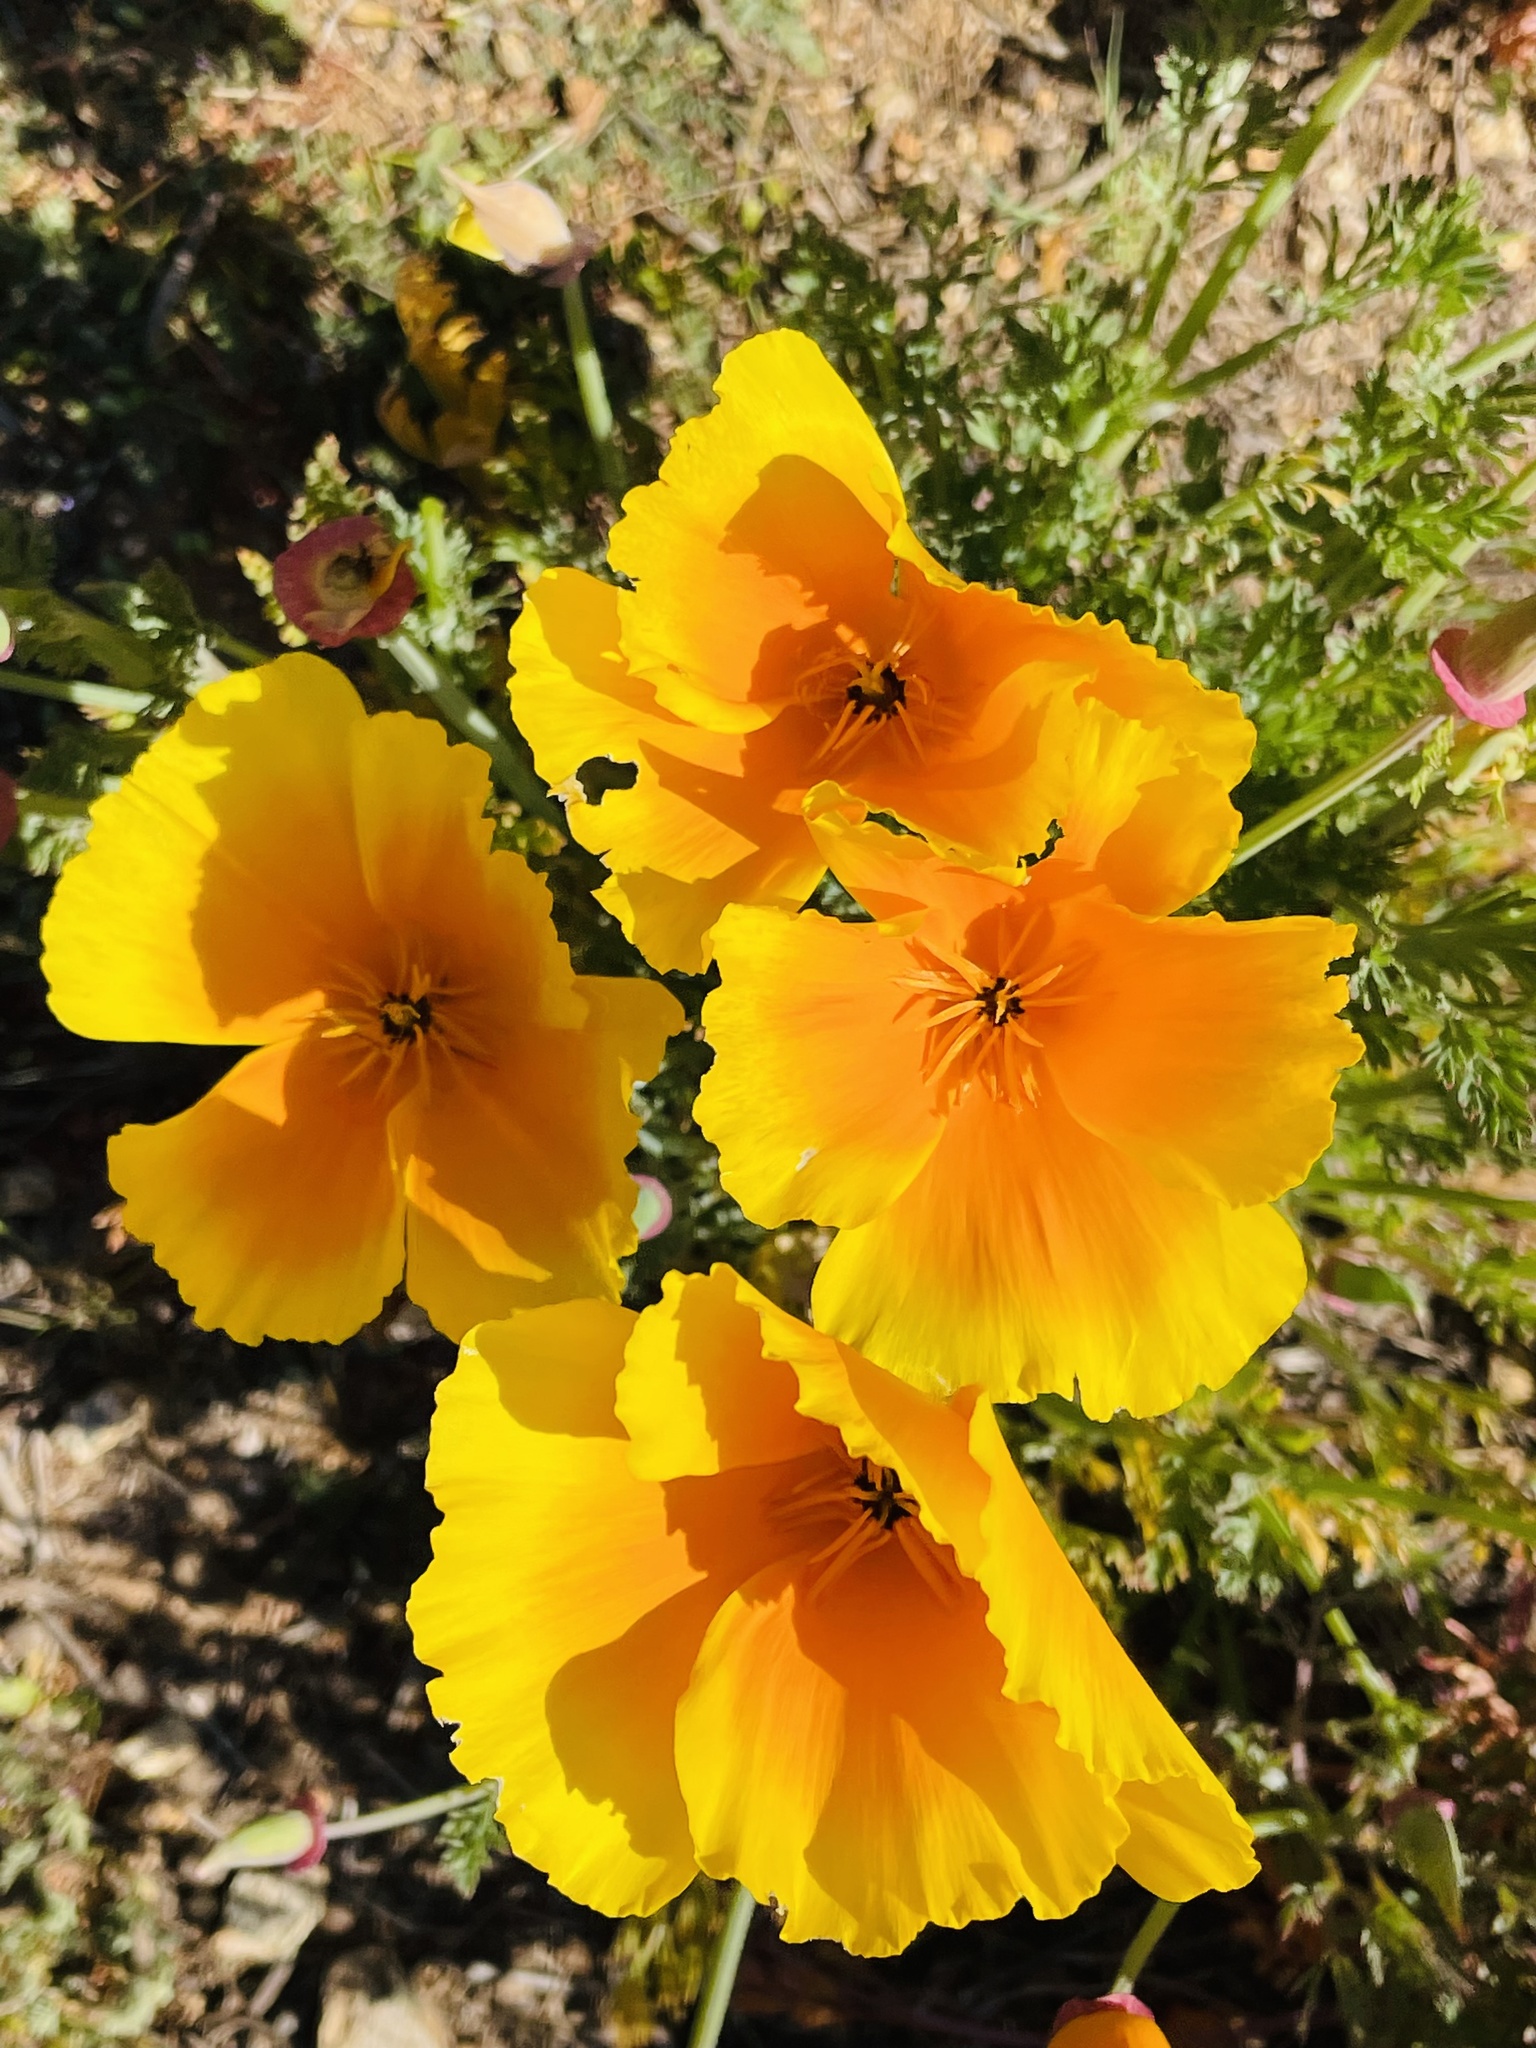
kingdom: Plantae
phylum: Tracheophyta
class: Magnoliopsida
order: Ranunculales
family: Papaveraceae
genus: Eschscholzia
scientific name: Eschscholzia californica
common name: California poppy
